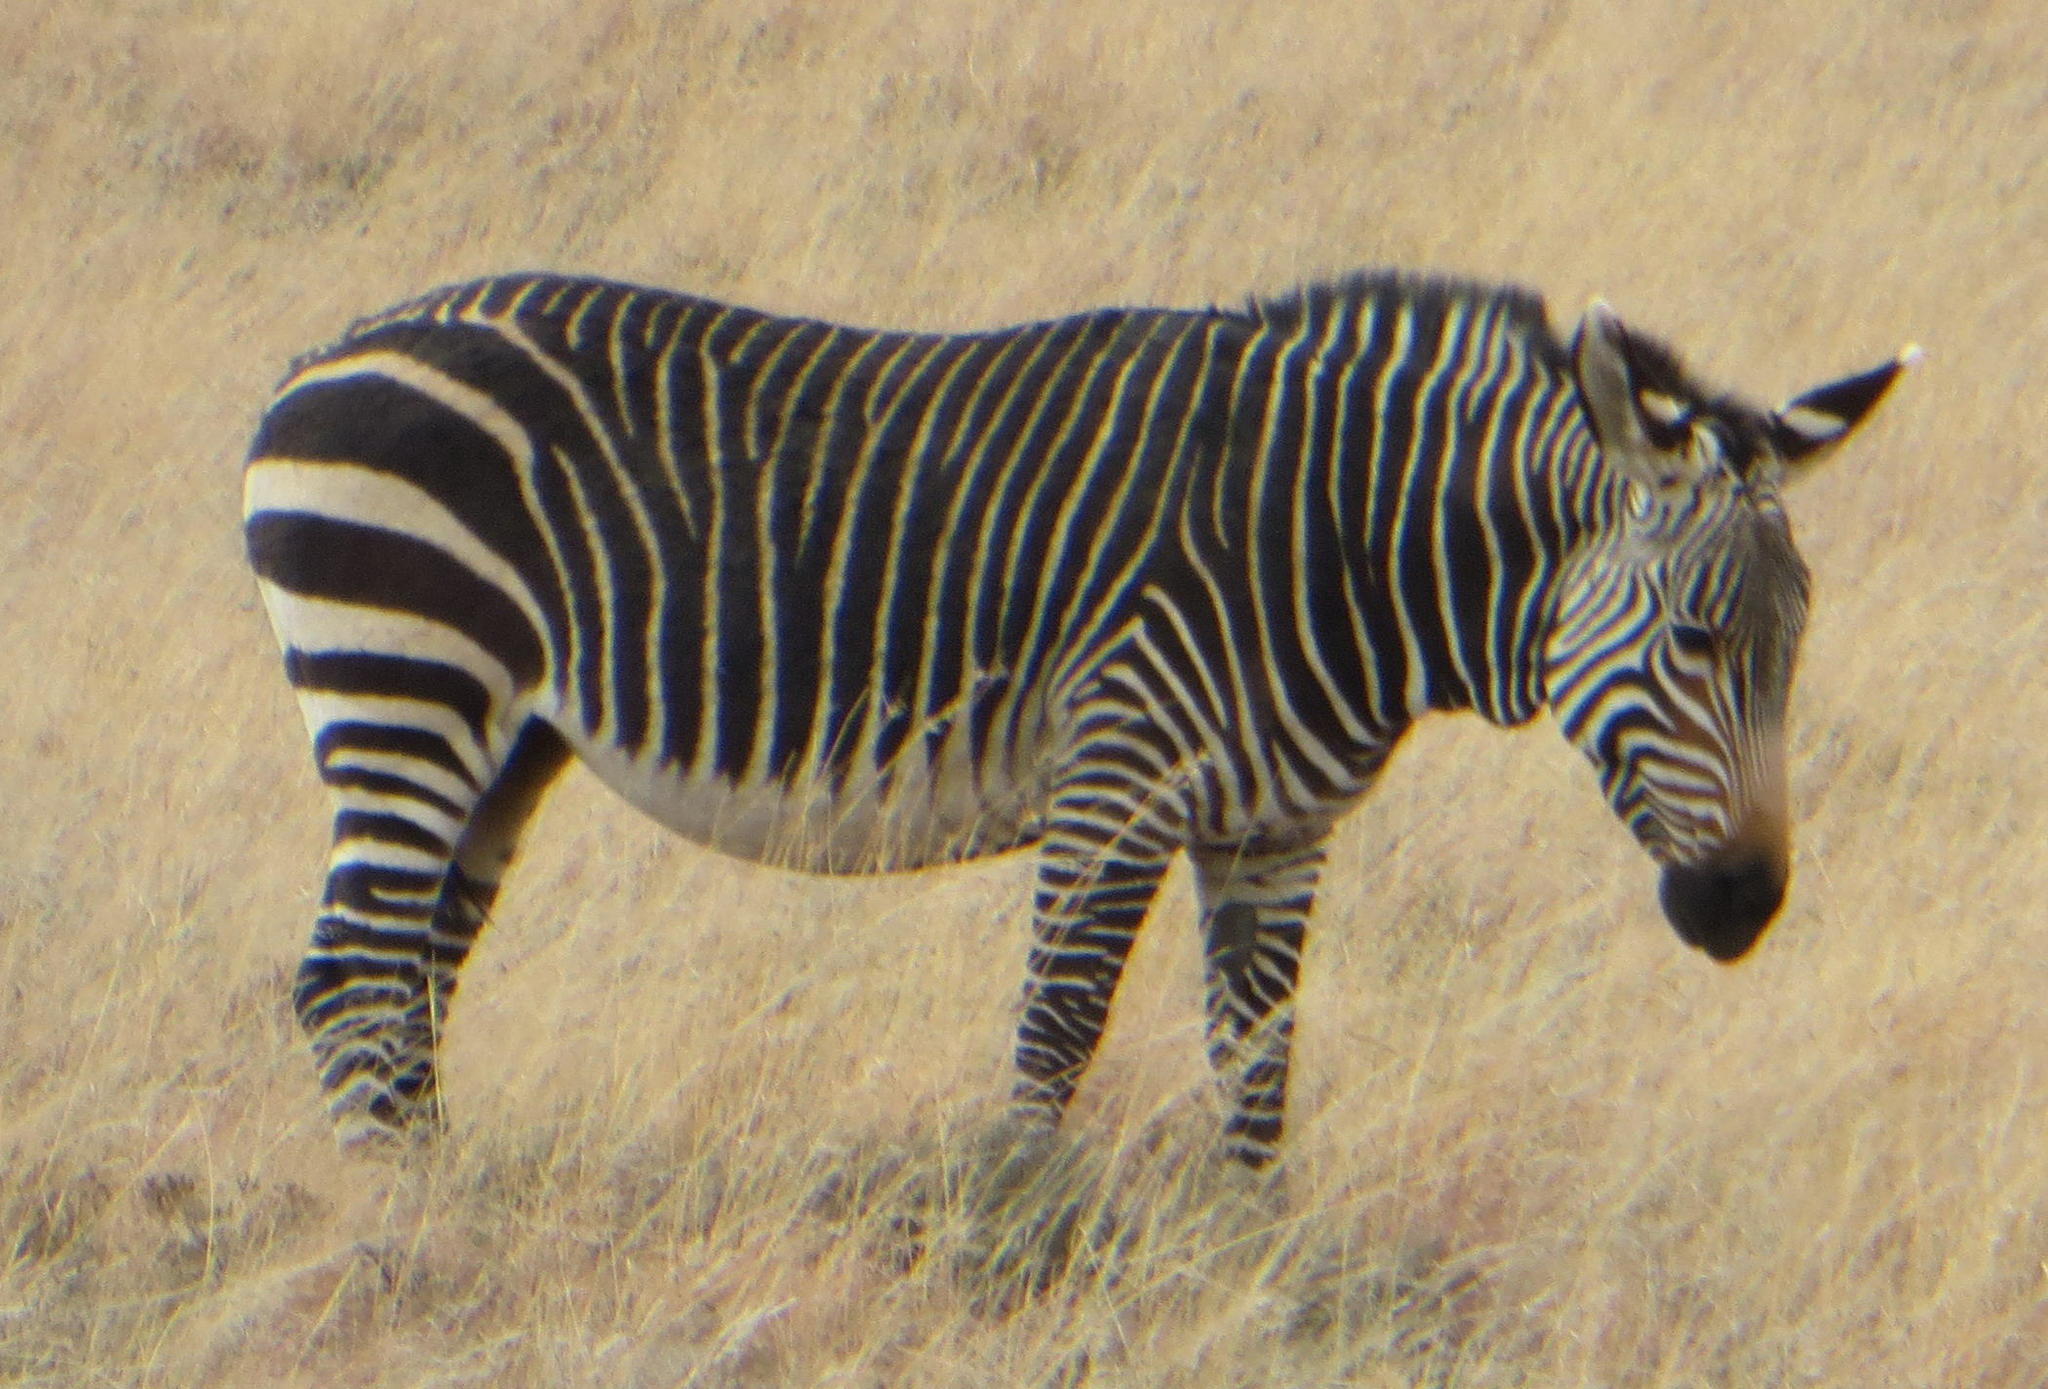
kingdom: Animalia
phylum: Chordata
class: Mammalia
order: Perissodactyla
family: Equidae
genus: Equus
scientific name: Equus zebra
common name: Mountain zebra
